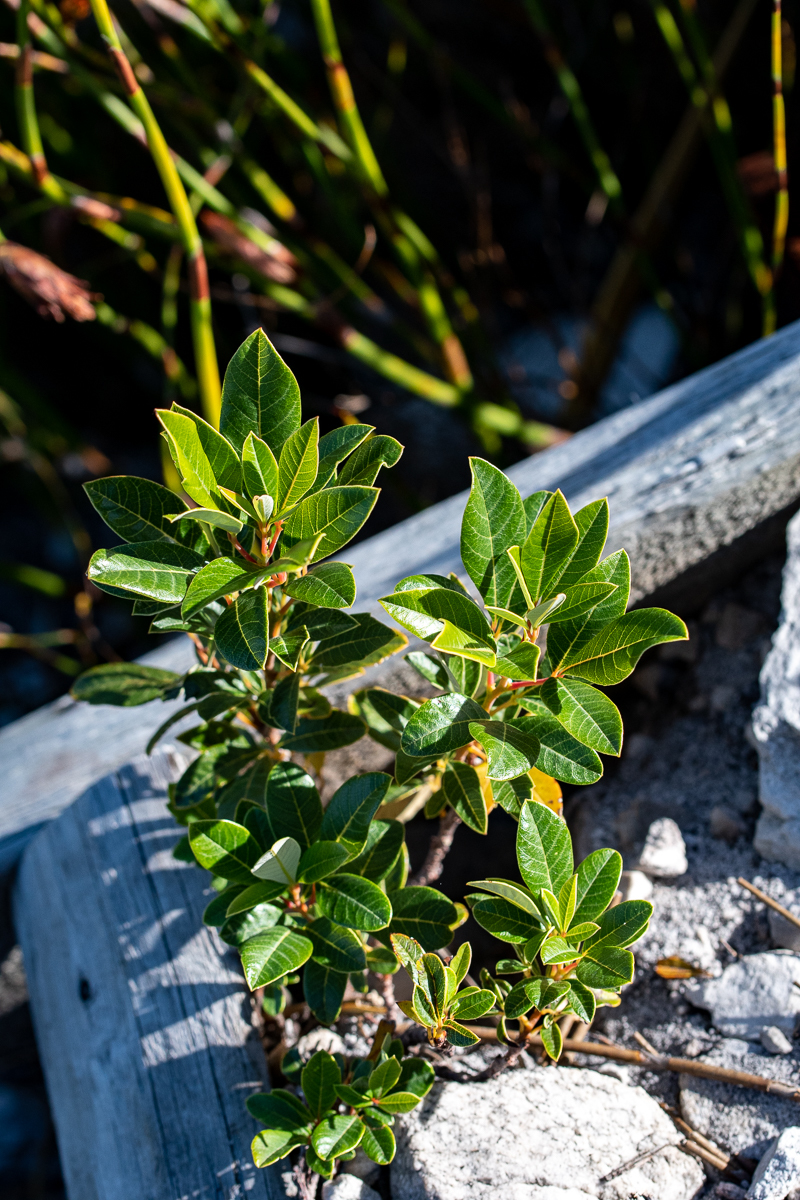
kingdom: Plantae
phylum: Tracheophyta
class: Magnoliopsida
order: Sapindales
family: Anacardiaceae
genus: Searsia
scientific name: Searsia tomentosa
